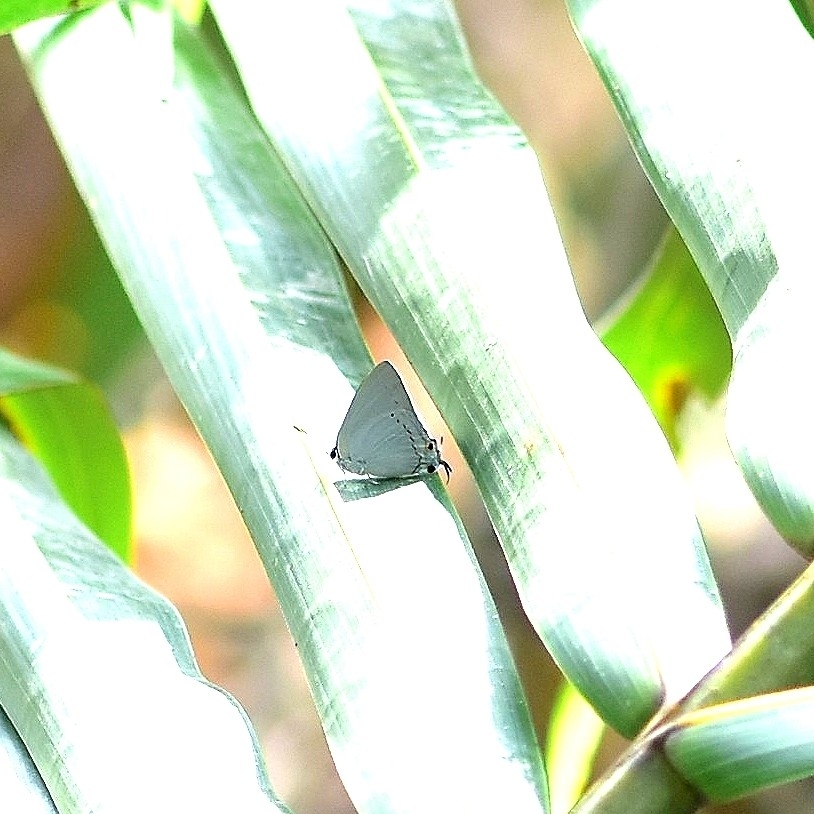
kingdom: Animalia
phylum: Arthropoda
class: Insecta
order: Lepidoptera
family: Lycaenidae
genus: Tajuria
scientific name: Tajuria cippus
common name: Peacock royal
